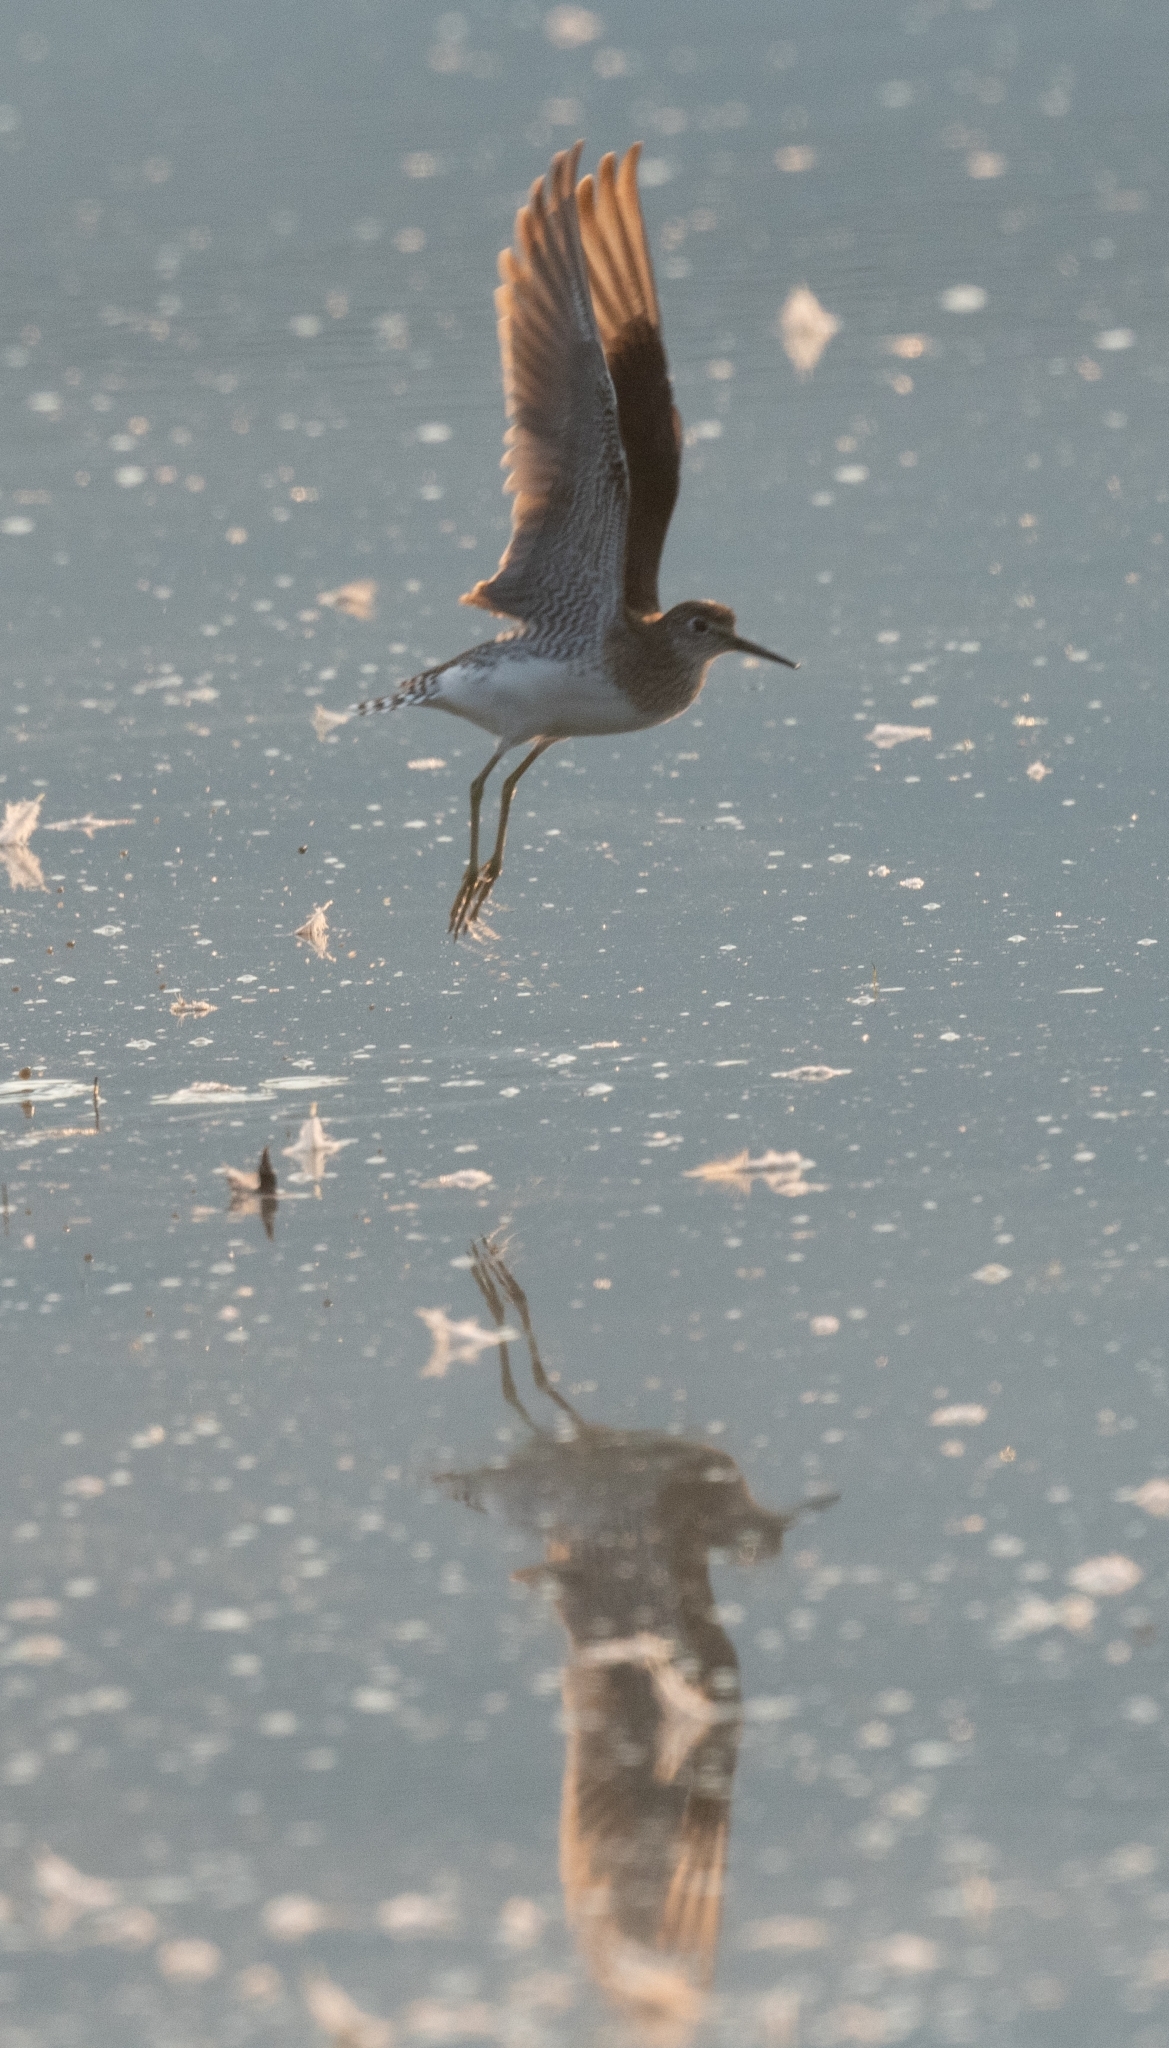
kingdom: Animalia
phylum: Chordata
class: Aves
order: Charadriiformes
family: Scolopacidae
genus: Tringa
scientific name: Tringa solitaria
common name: Solitary sandpiper
